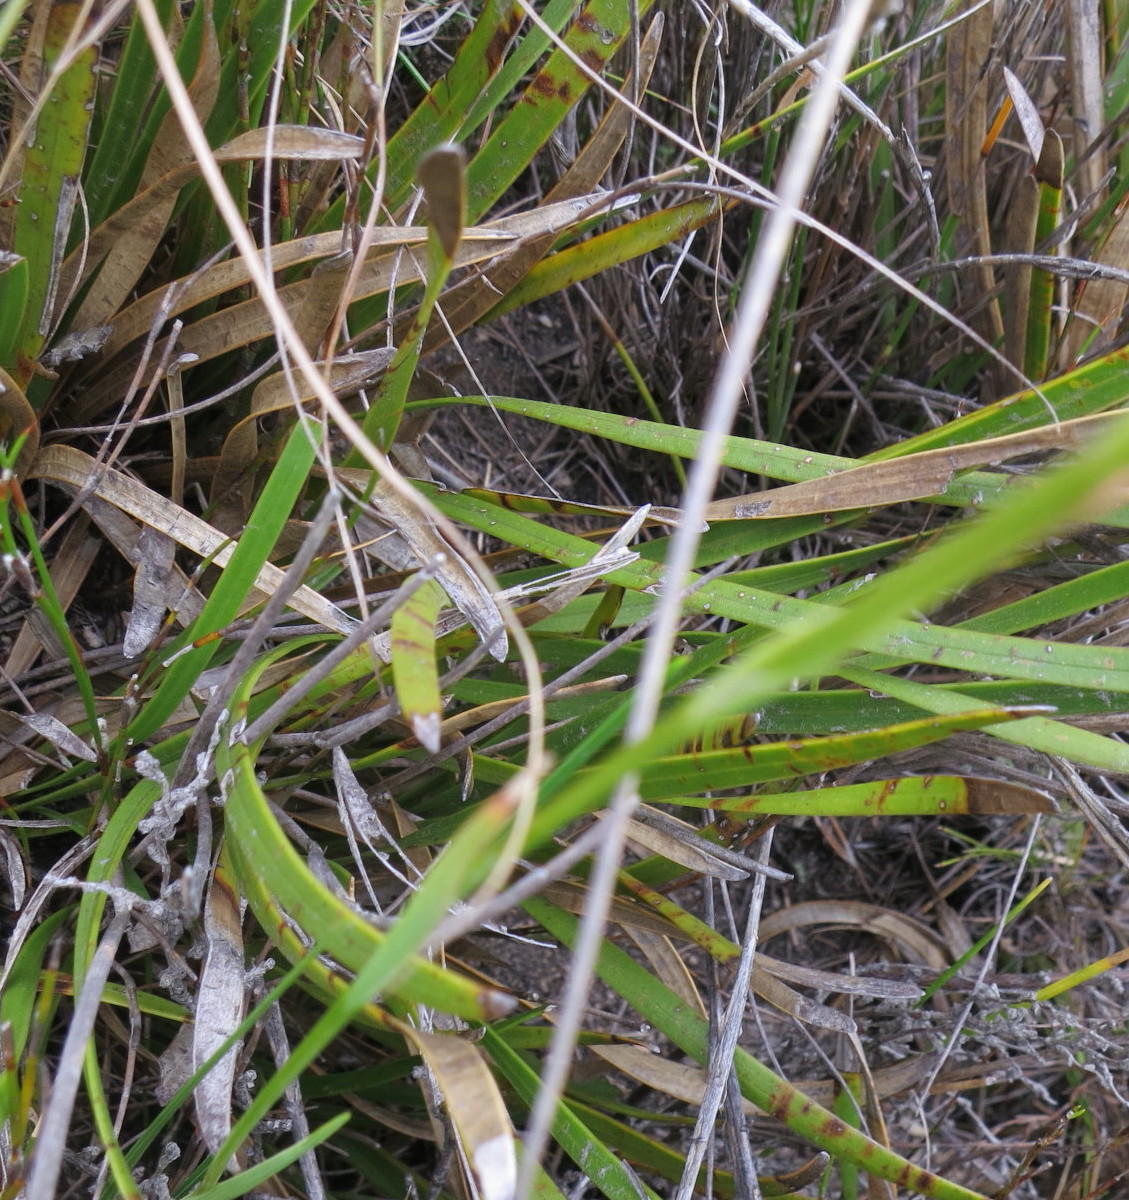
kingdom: Plantae
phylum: Tracheophyta
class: Liliopsida
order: Asparagales
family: Iridaceae
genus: Geissorhiza
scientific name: Geissorhiza fourcadei
